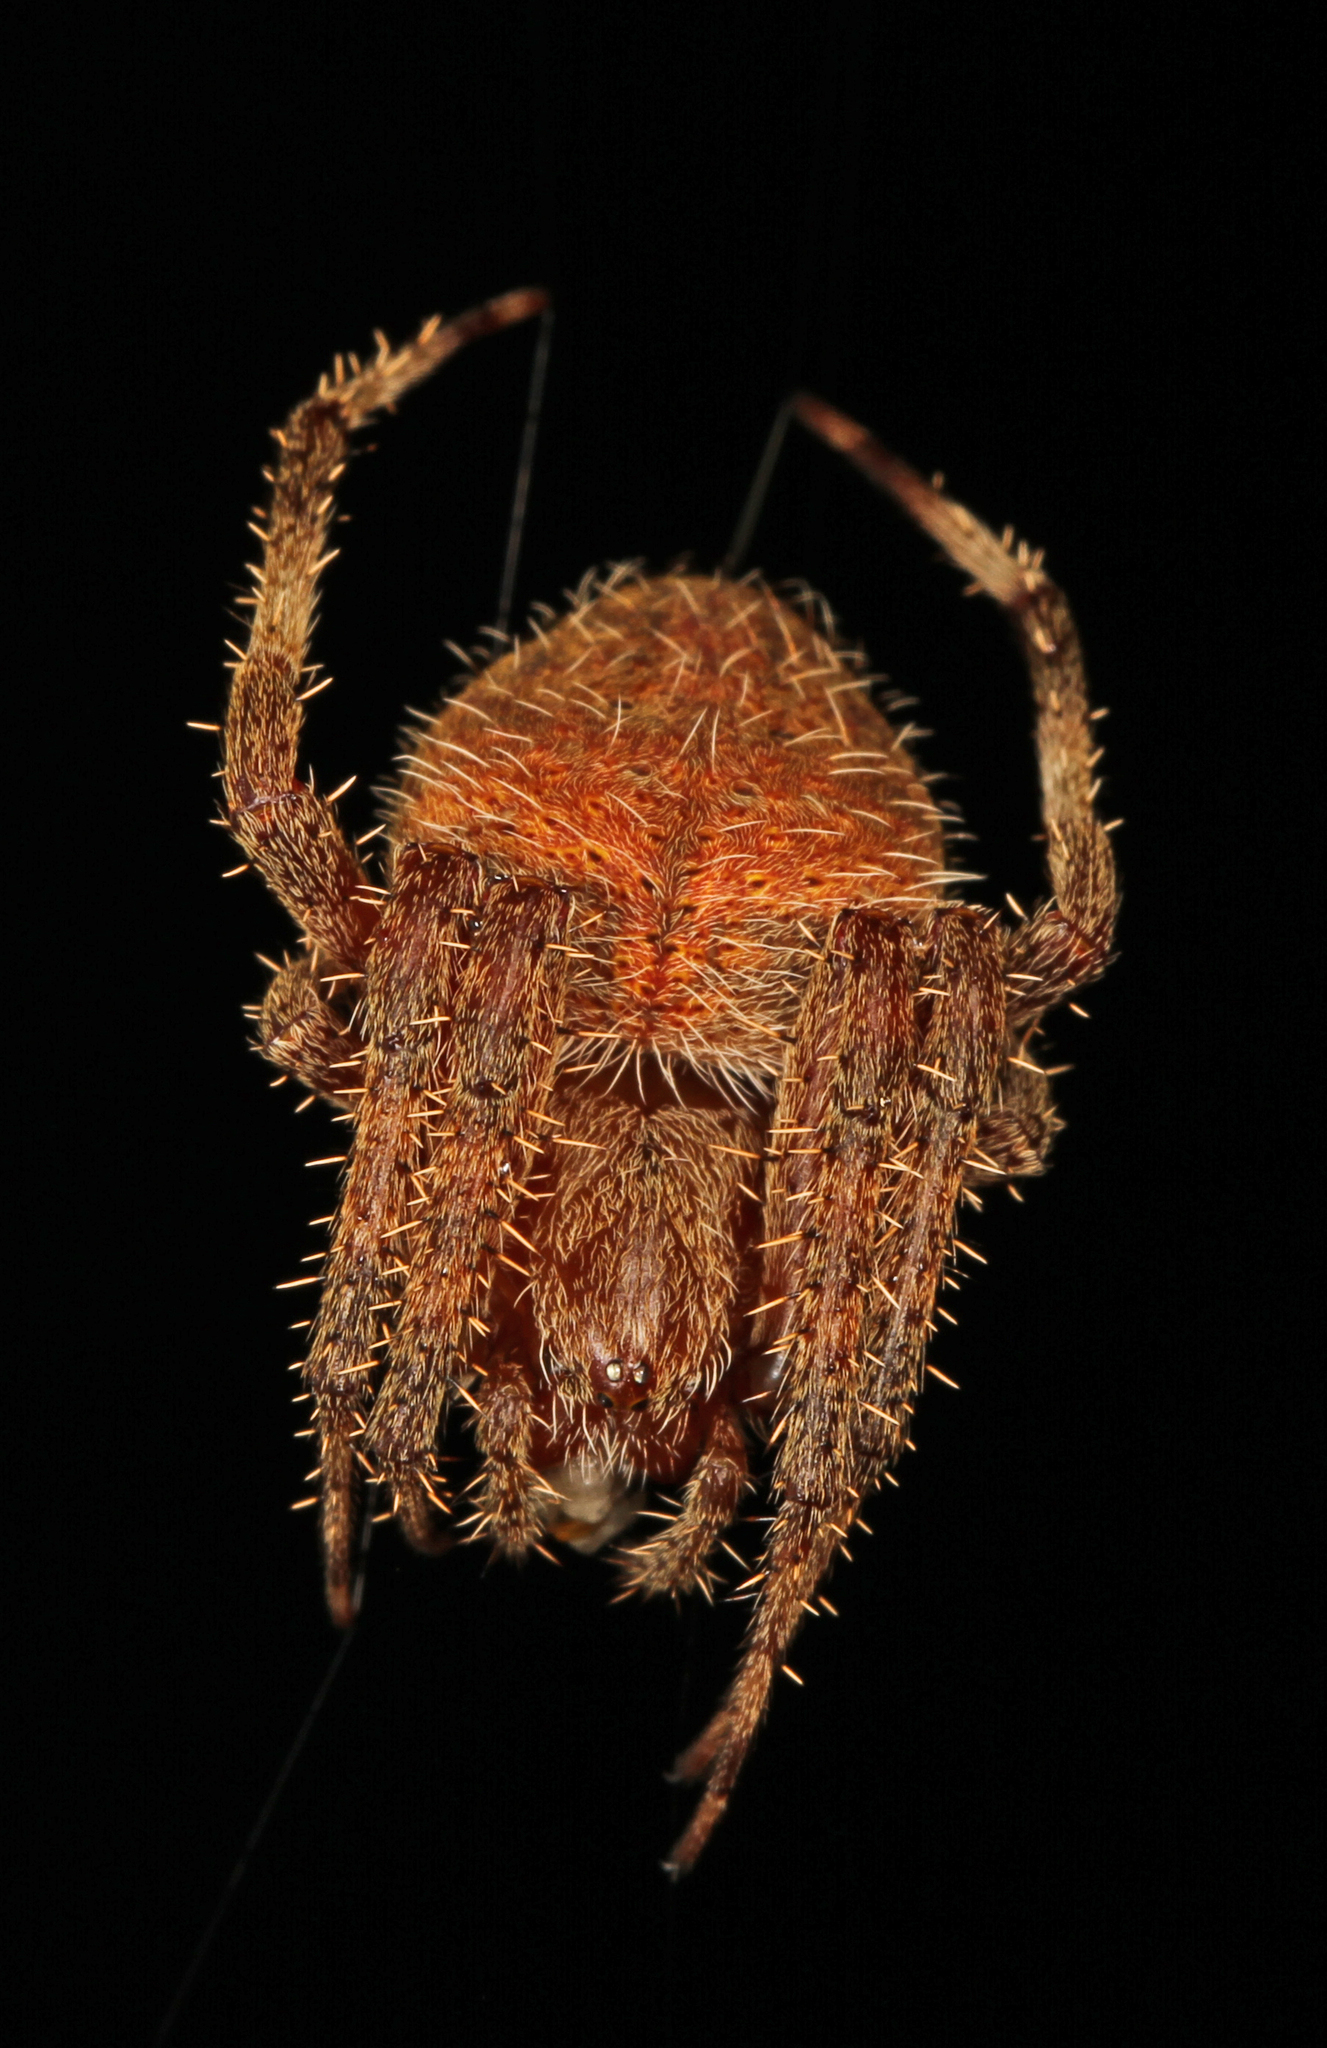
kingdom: Animalia
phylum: Arthropoda
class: Arachnida
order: Araneae
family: Araneidae
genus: Neoscona
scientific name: Neoscona crucifera
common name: Spotted orbweaver
